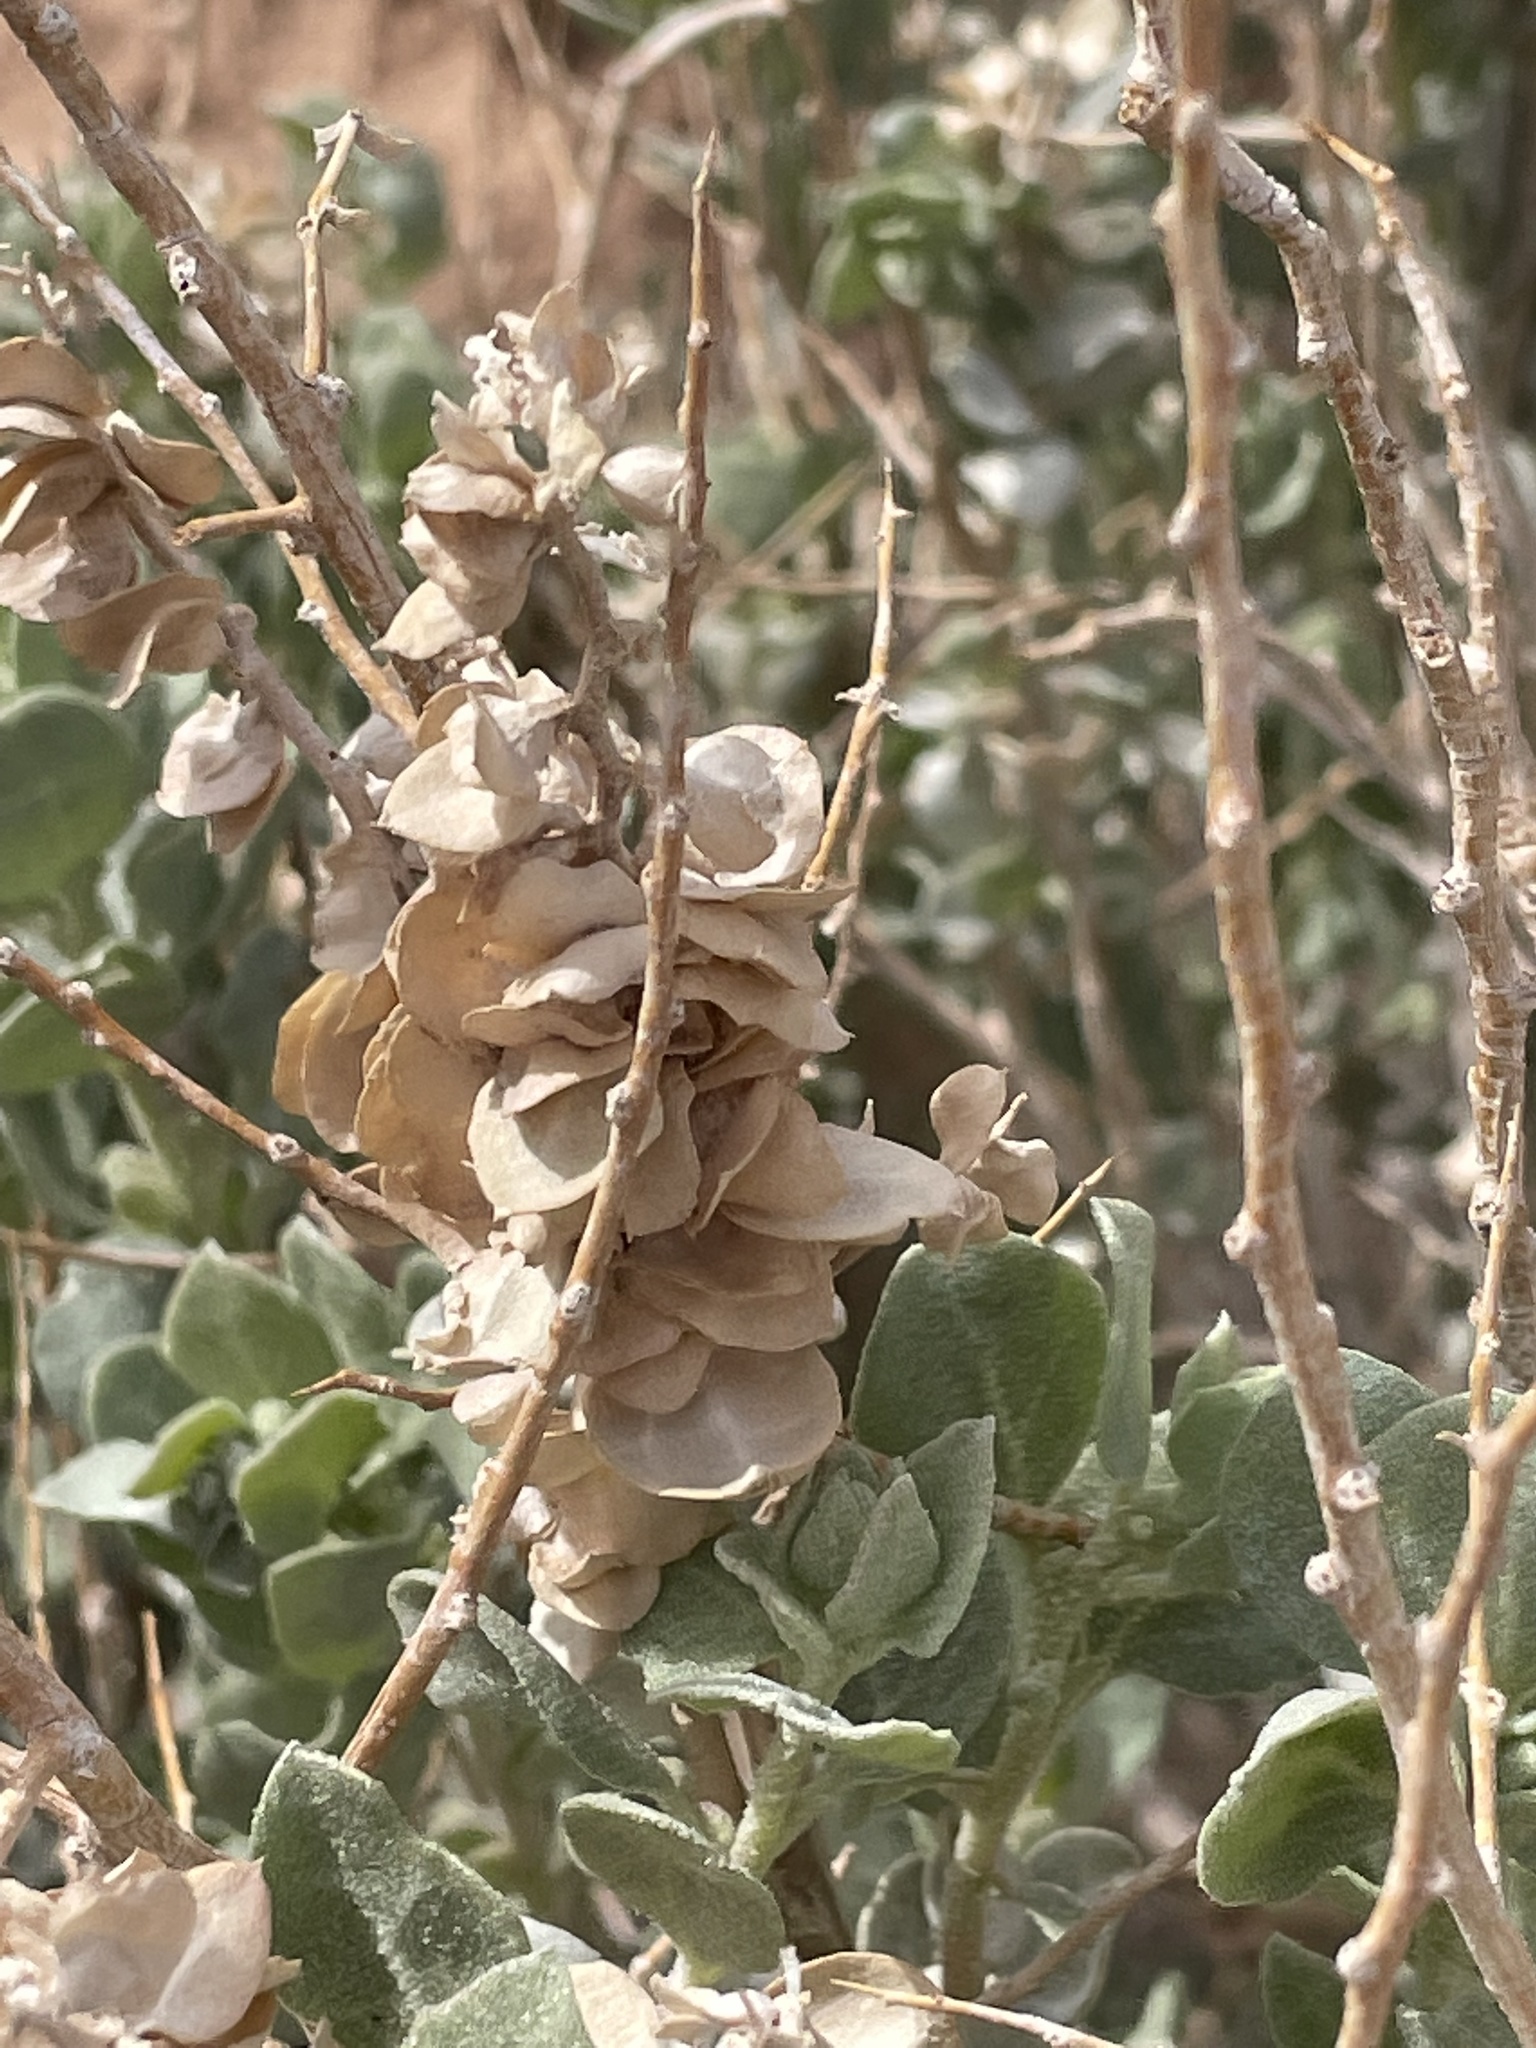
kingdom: Plantae
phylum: Tracheophyta
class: Magnoliopsida
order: Caryophyllales
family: Amaranthaceae
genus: Atriplex
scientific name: Atriplex confertifolia
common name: Shadscale
